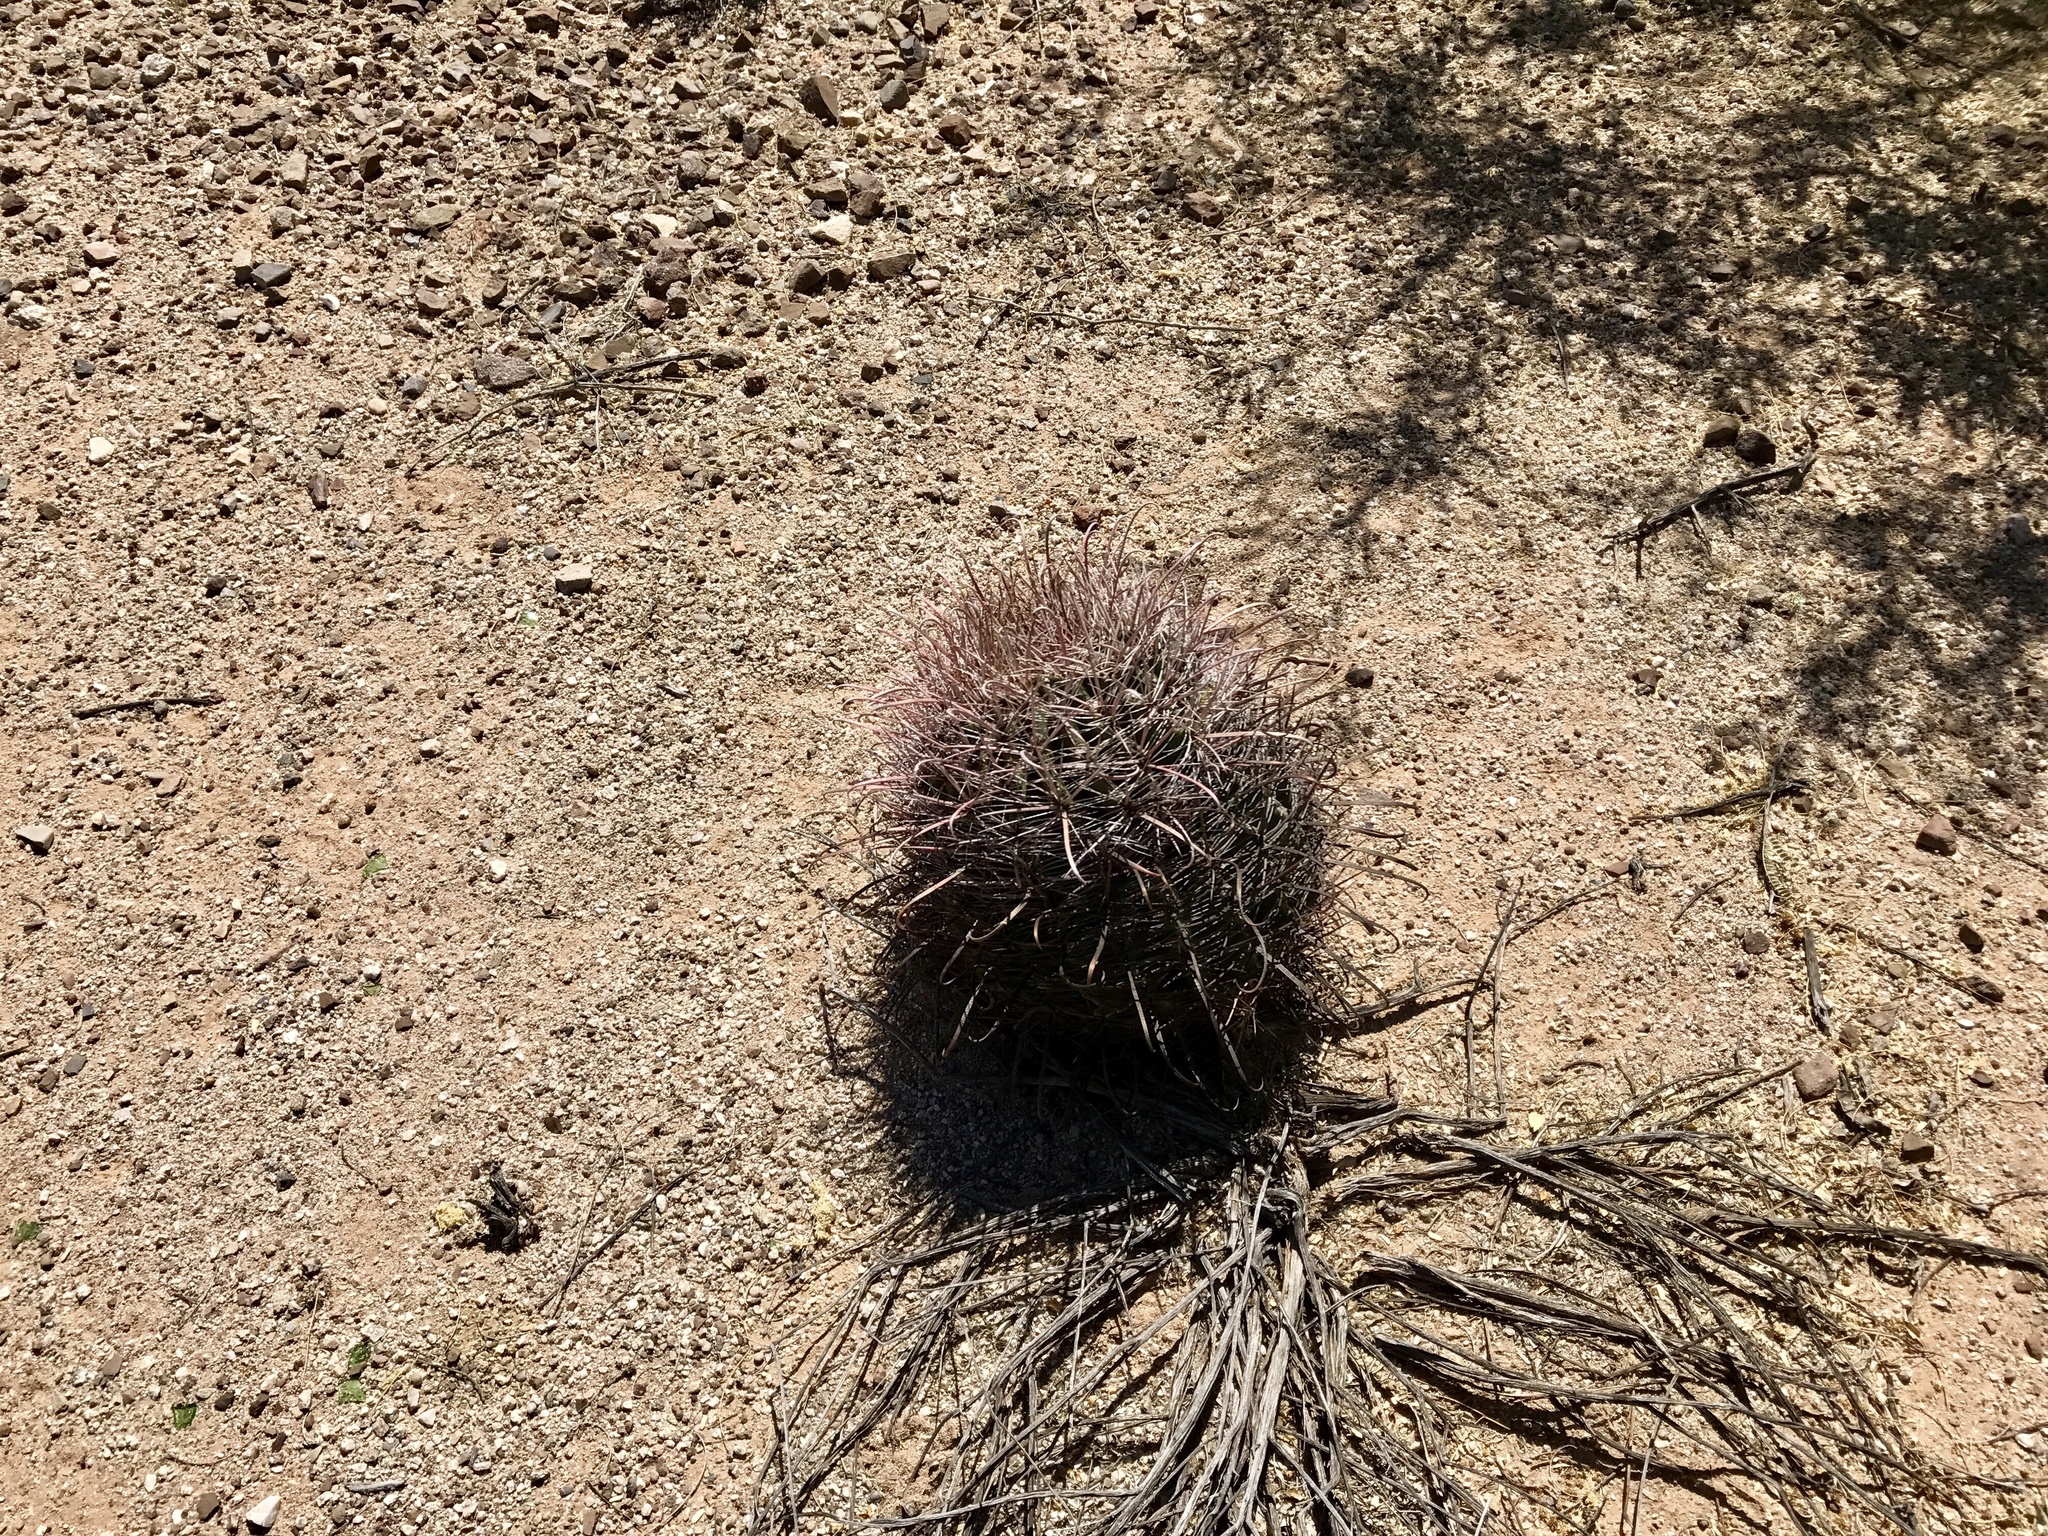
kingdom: Plantae
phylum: Tracheophyta
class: Magnoliopsida
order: Caryophyllales
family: Cactaceae
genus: Ferocactus
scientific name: Ferocactus wislizeni
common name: Candy barrel cactus
